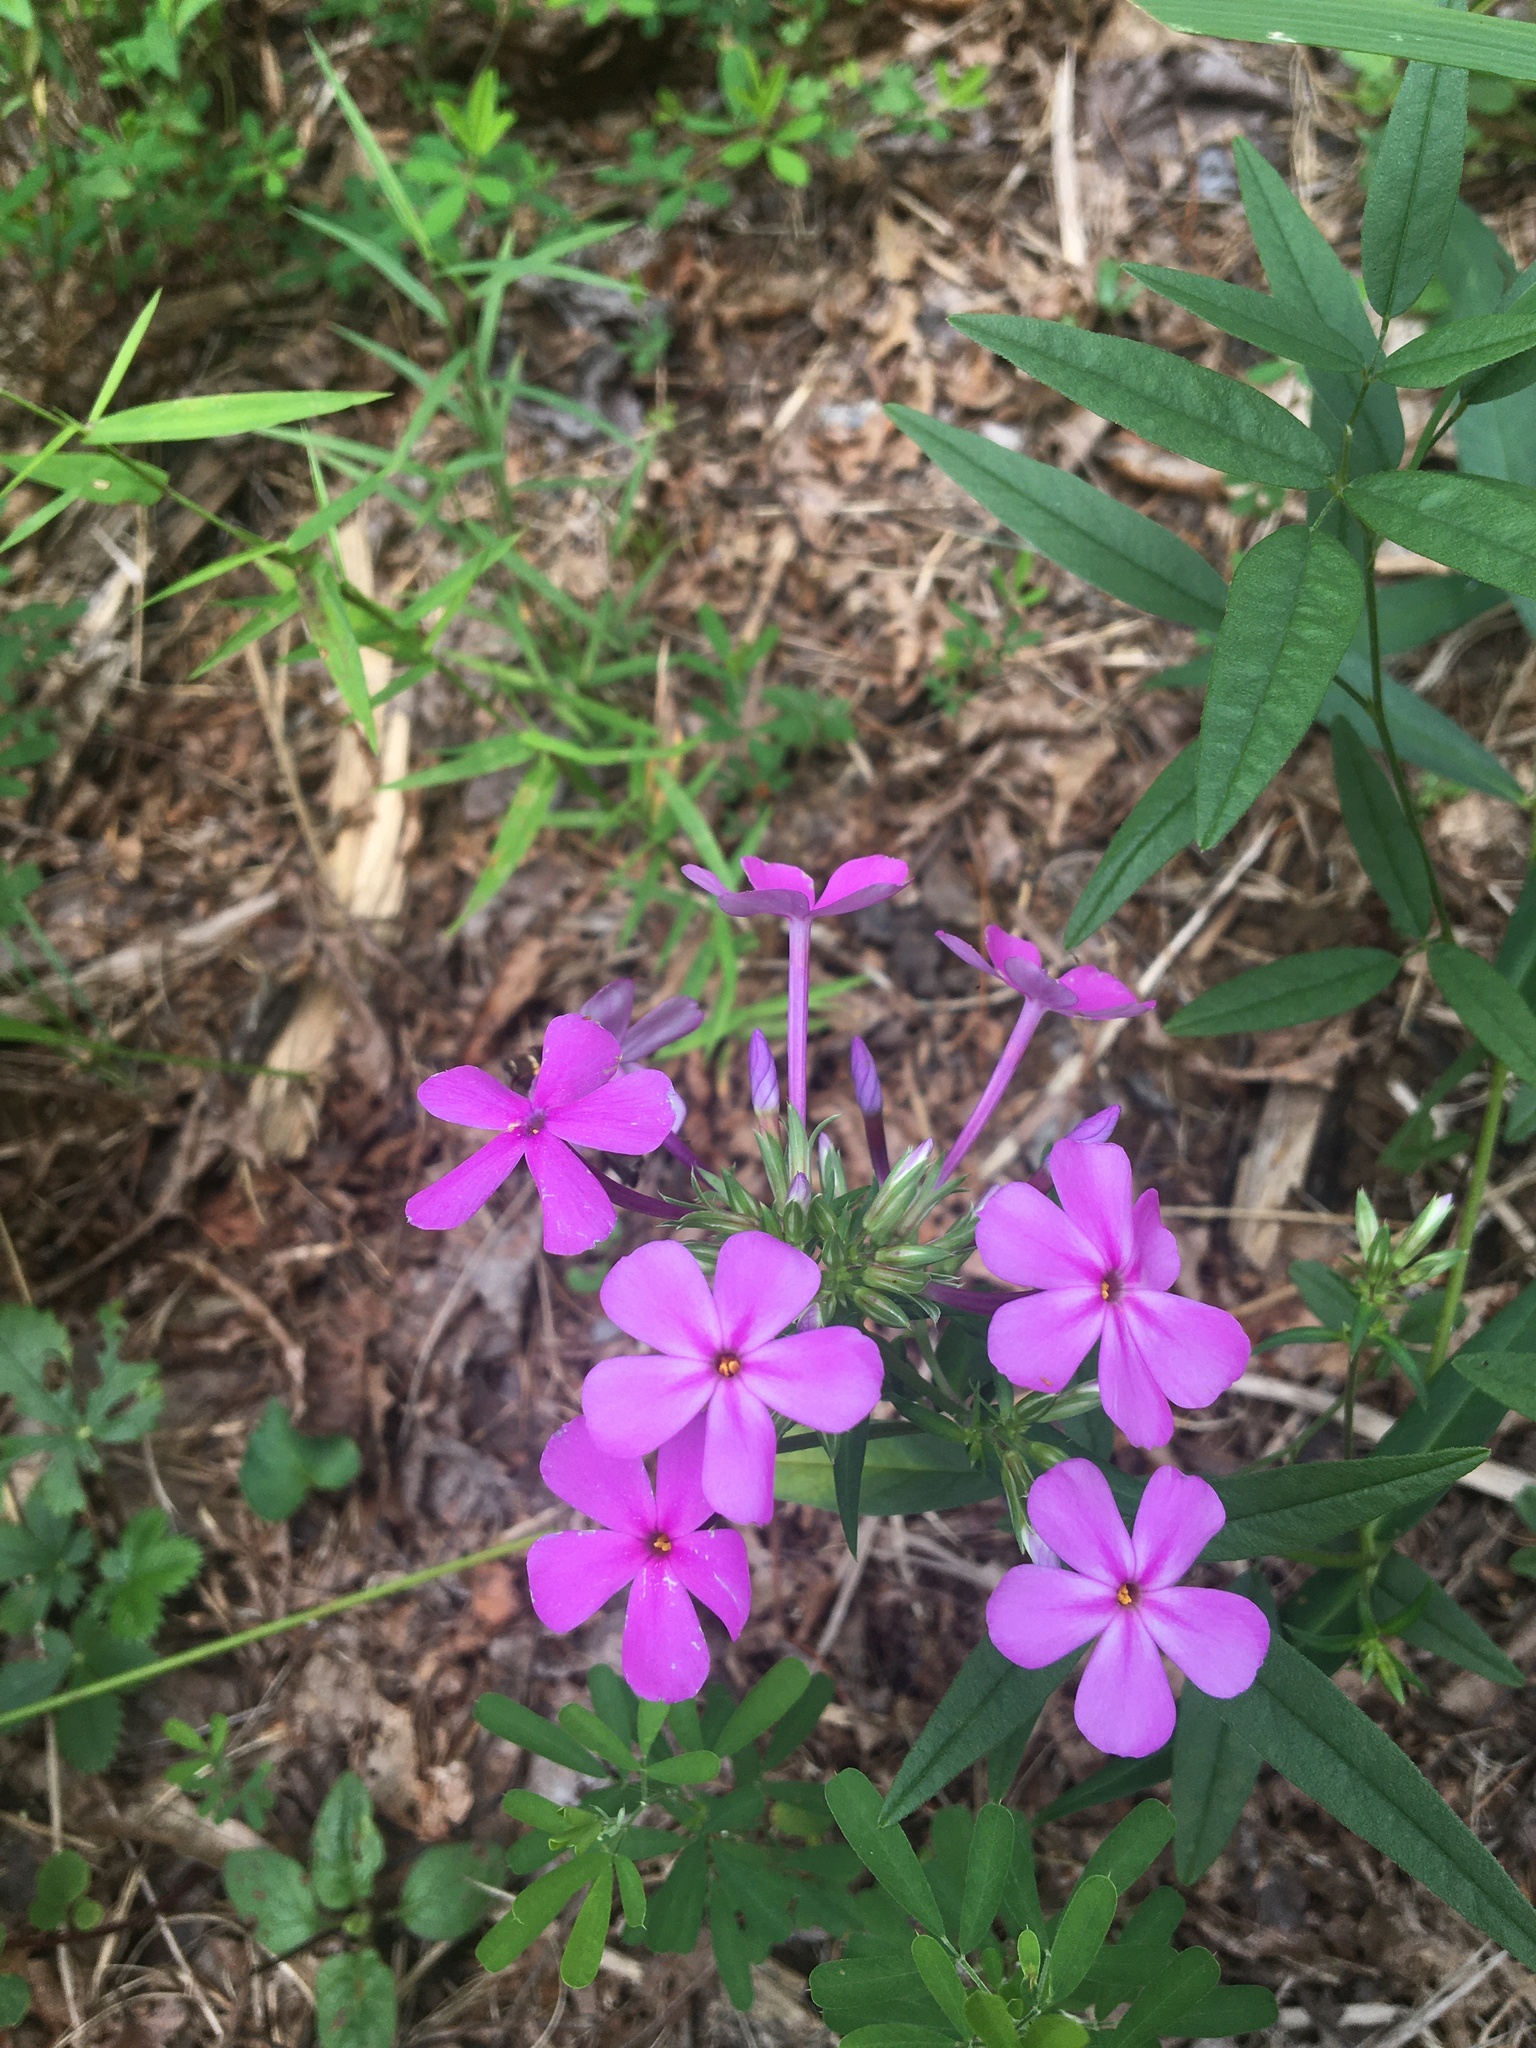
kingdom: Plantae
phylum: Tracheophyta
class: Magnoliopsida
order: Ericales
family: Polemoniaceae
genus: Phlox
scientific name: Phlox carolina
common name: Thick-leaf phlox
